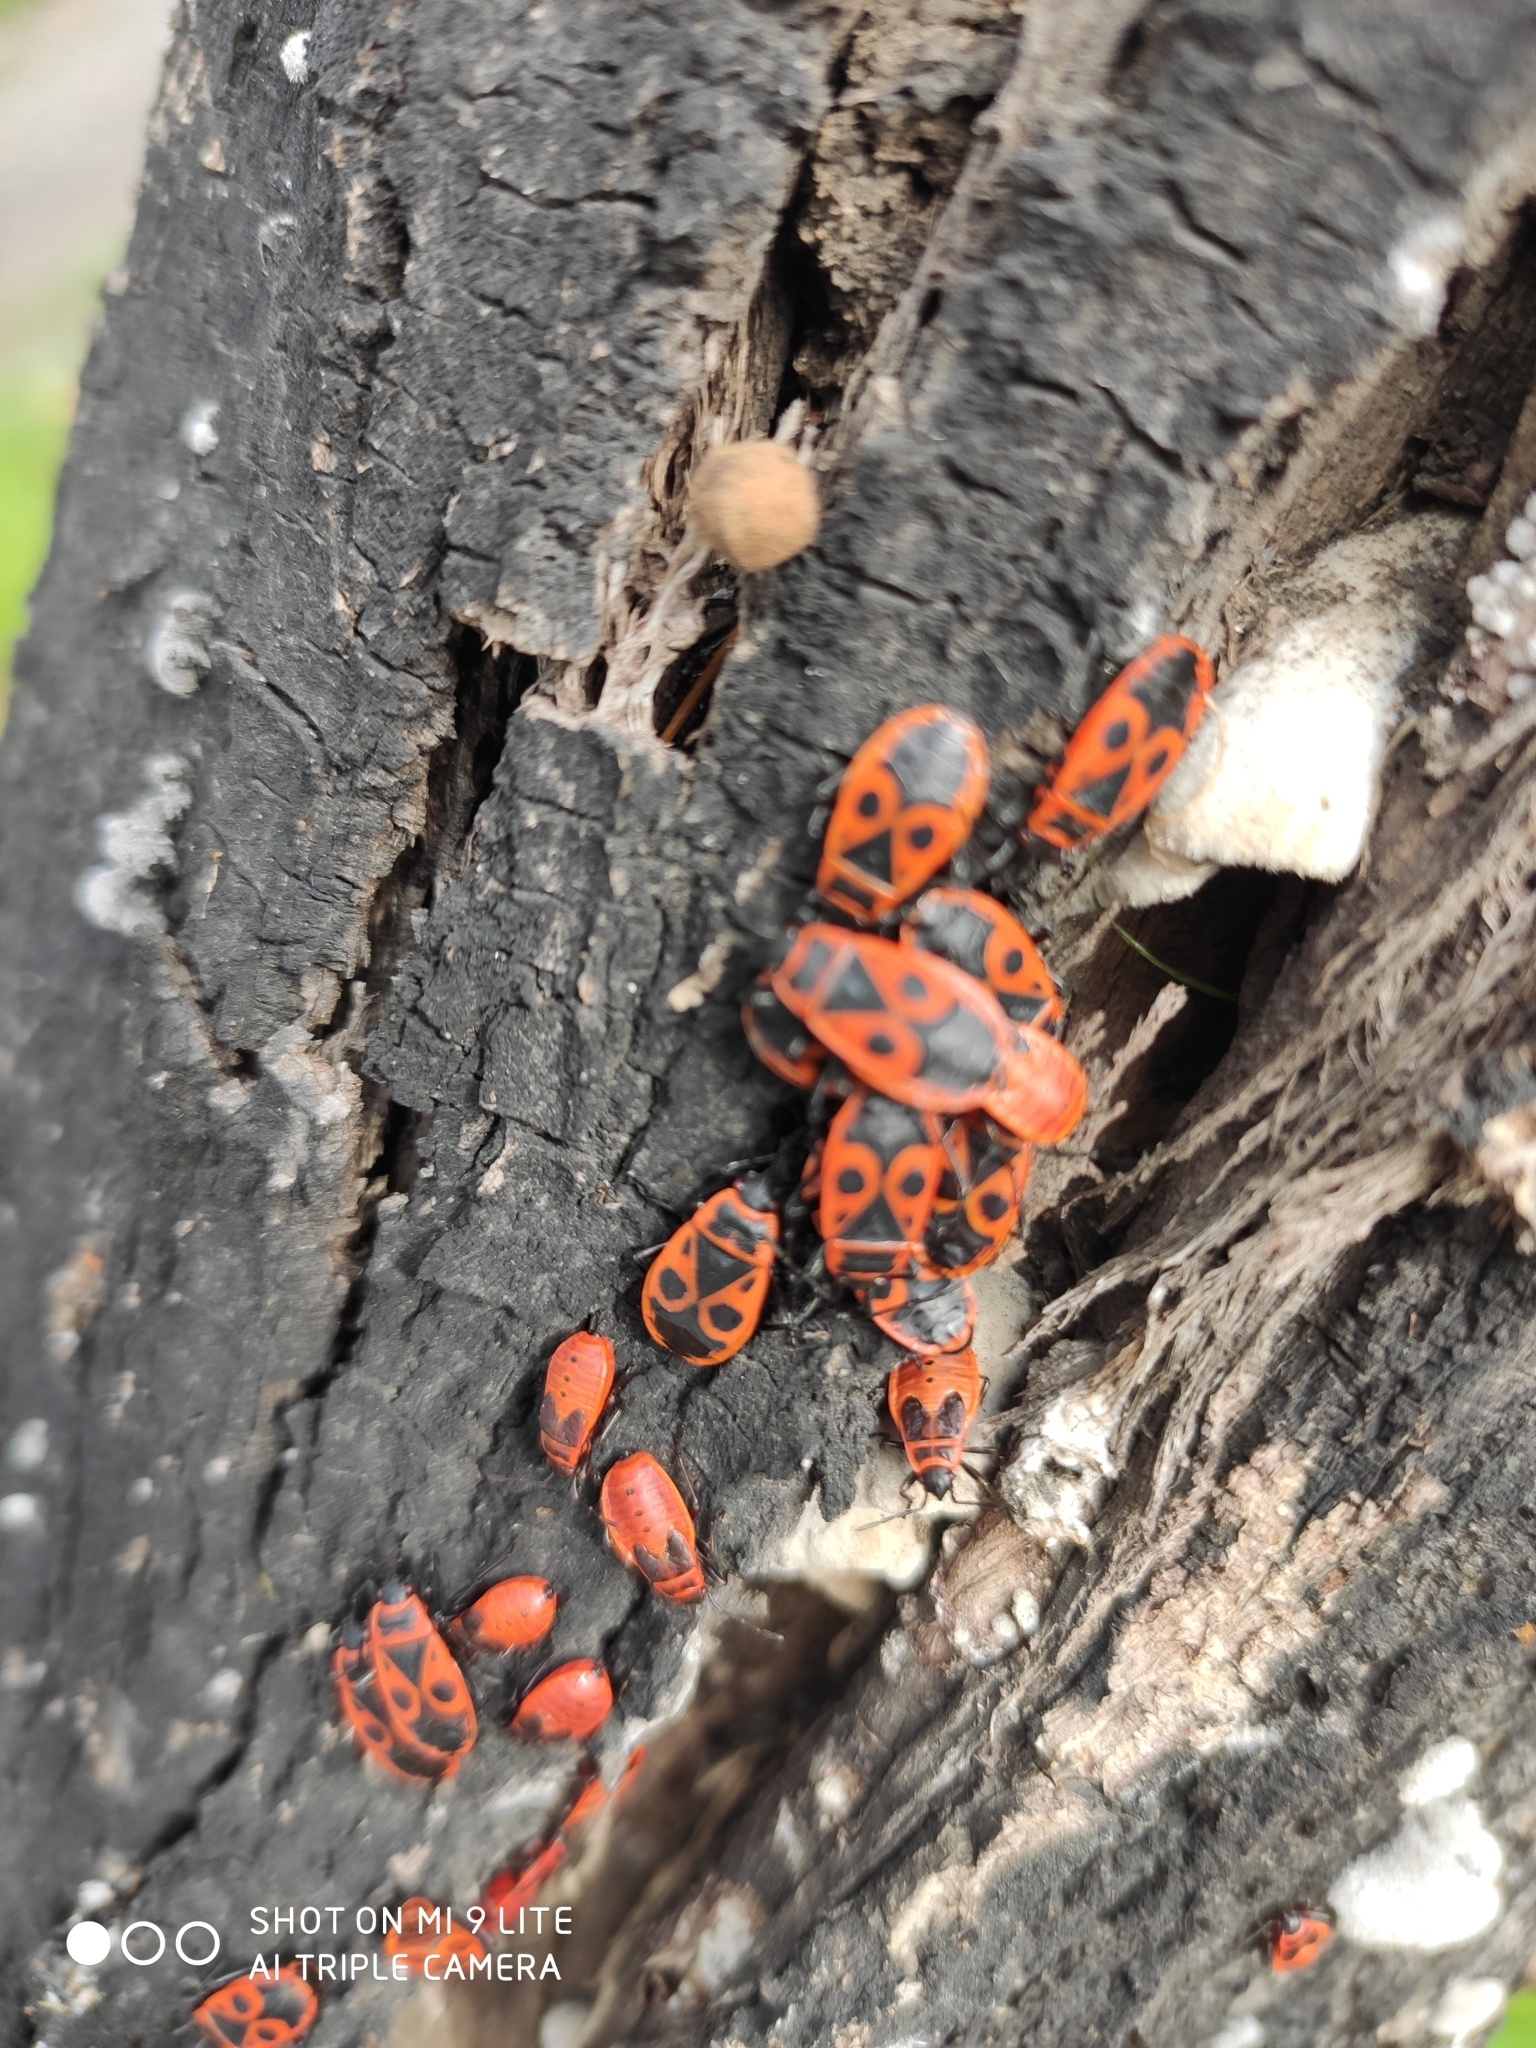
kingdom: Animalia
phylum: Arthropoda
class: Insecta
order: Hemiptera
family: Pyrrhocoridae
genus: Pyrrhocoris
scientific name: Pyrrhocoris apterus
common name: Firebug
